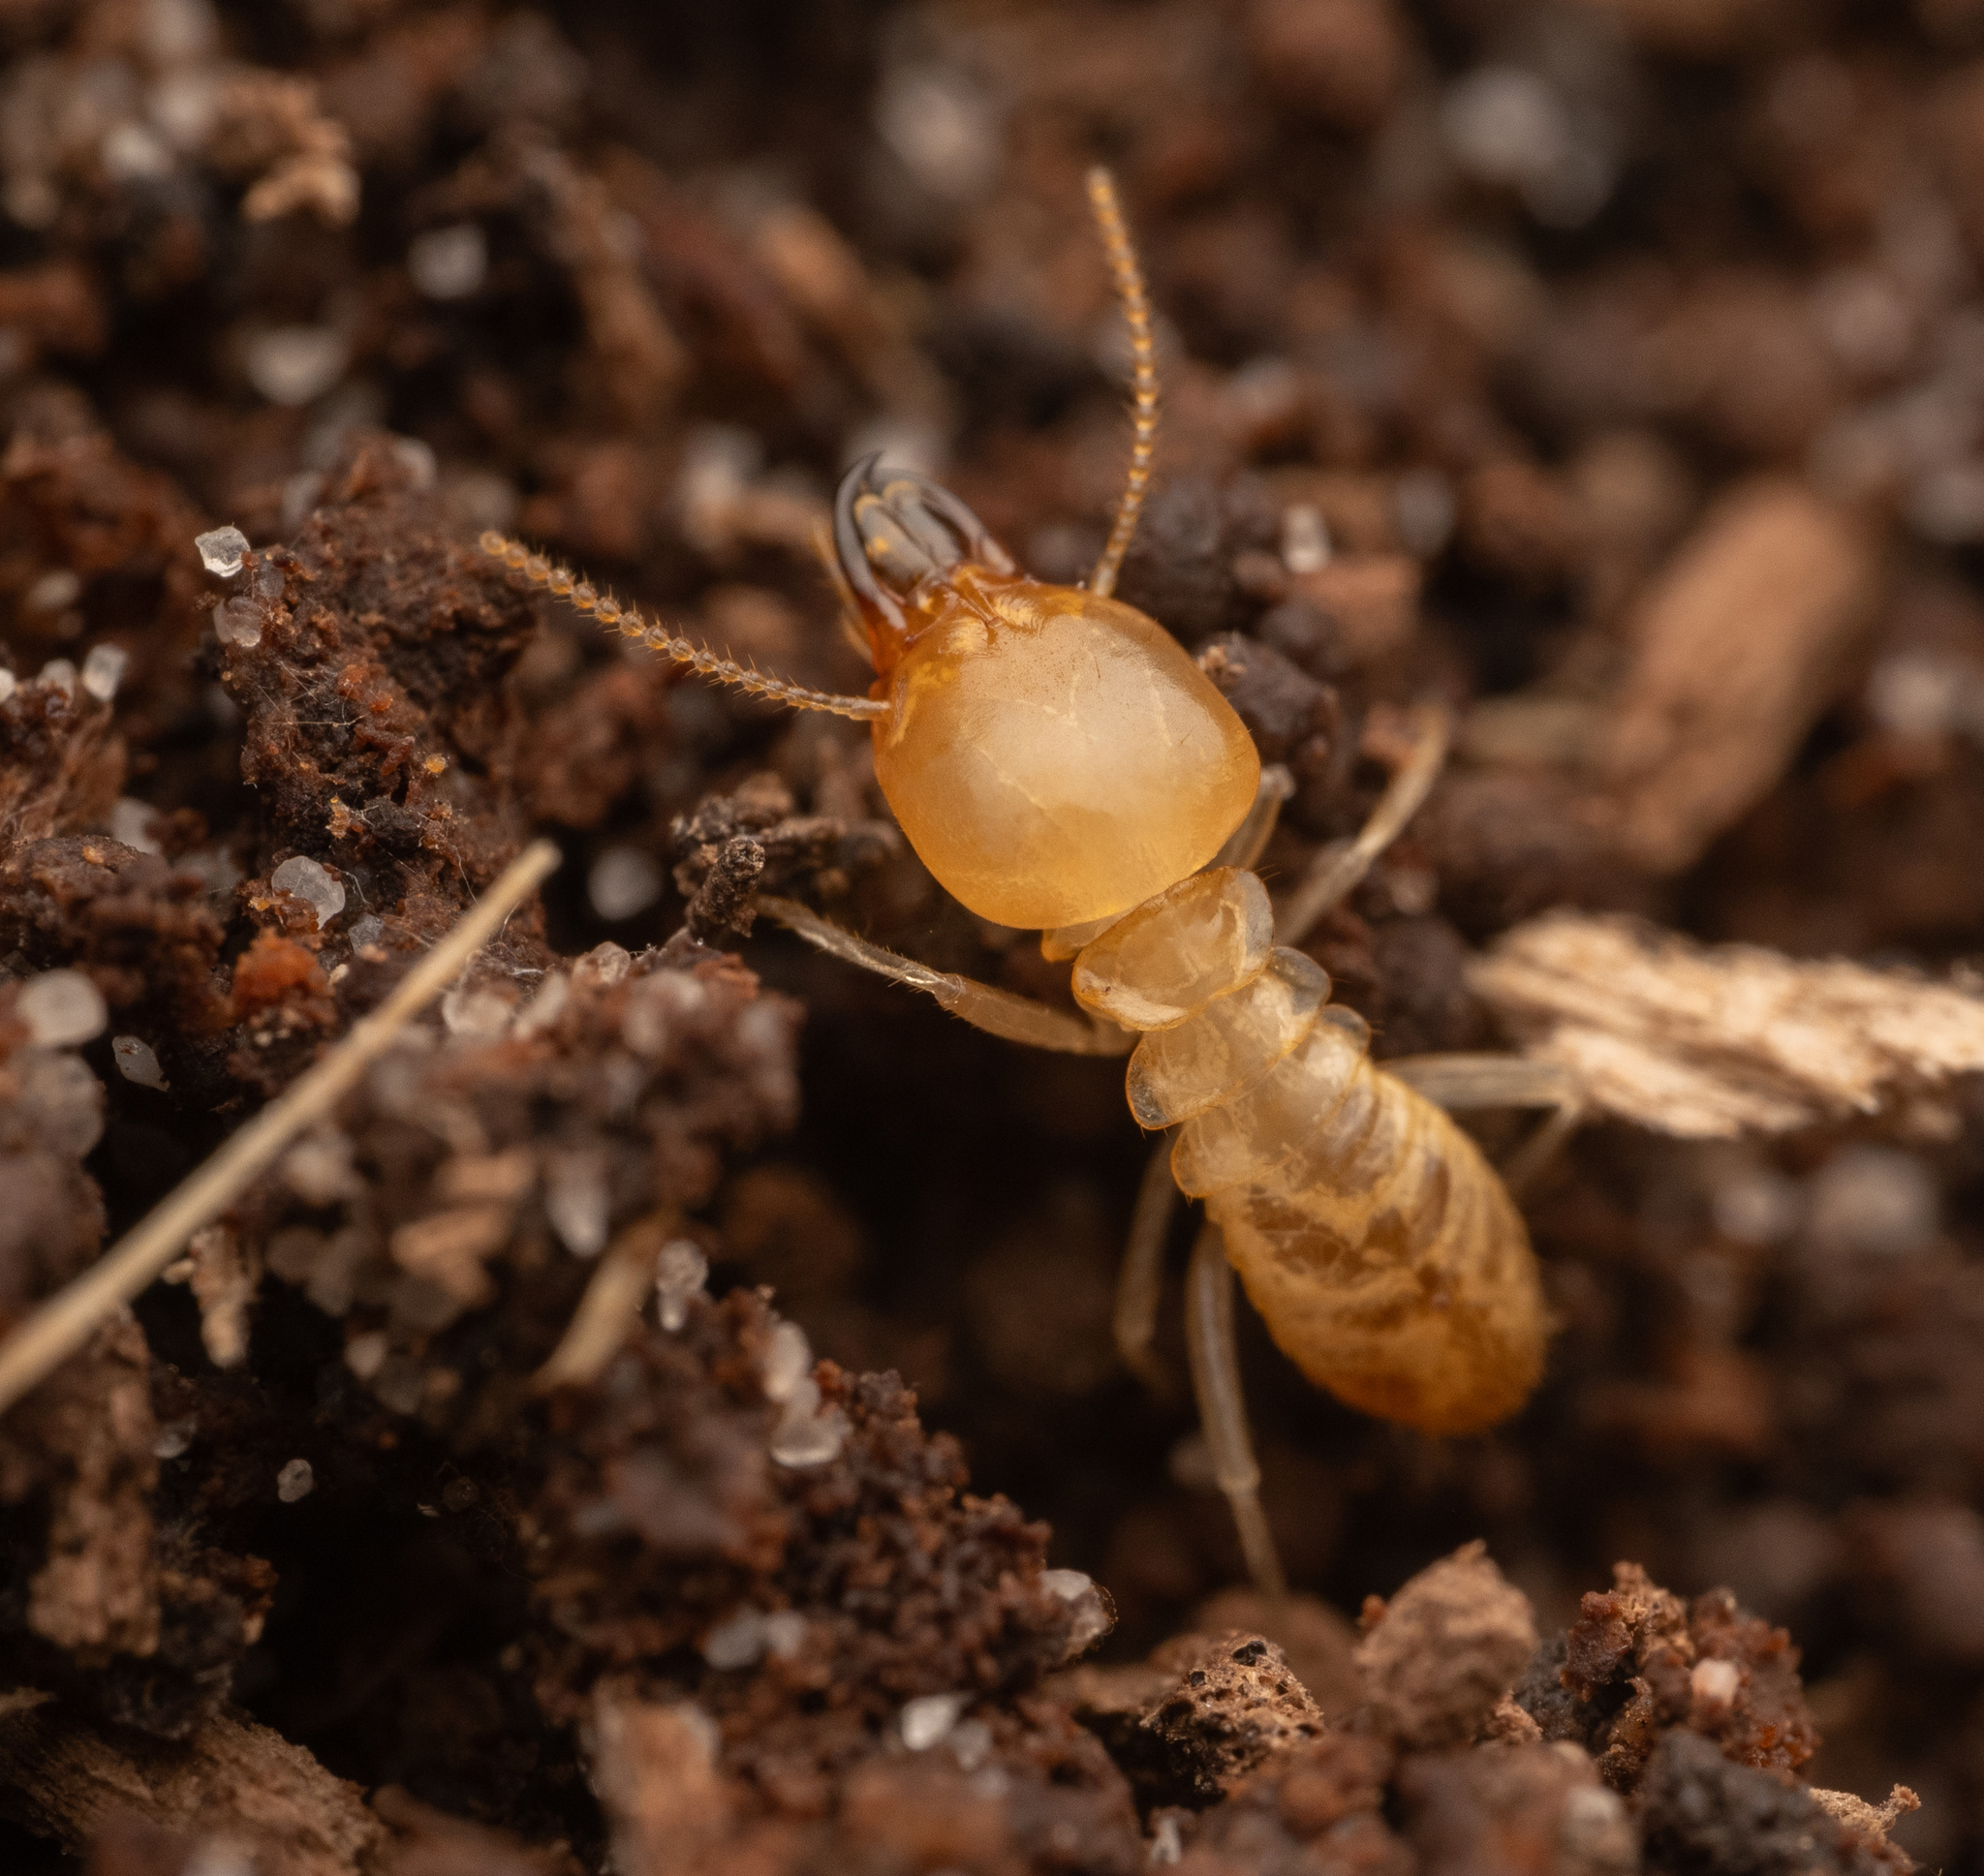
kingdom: Animalia
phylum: Arthropoda
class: Insecta
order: Blattodea
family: Rhinotermitidae
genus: Schedorhinotermes
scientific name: Schedorhinotermes intermedius
